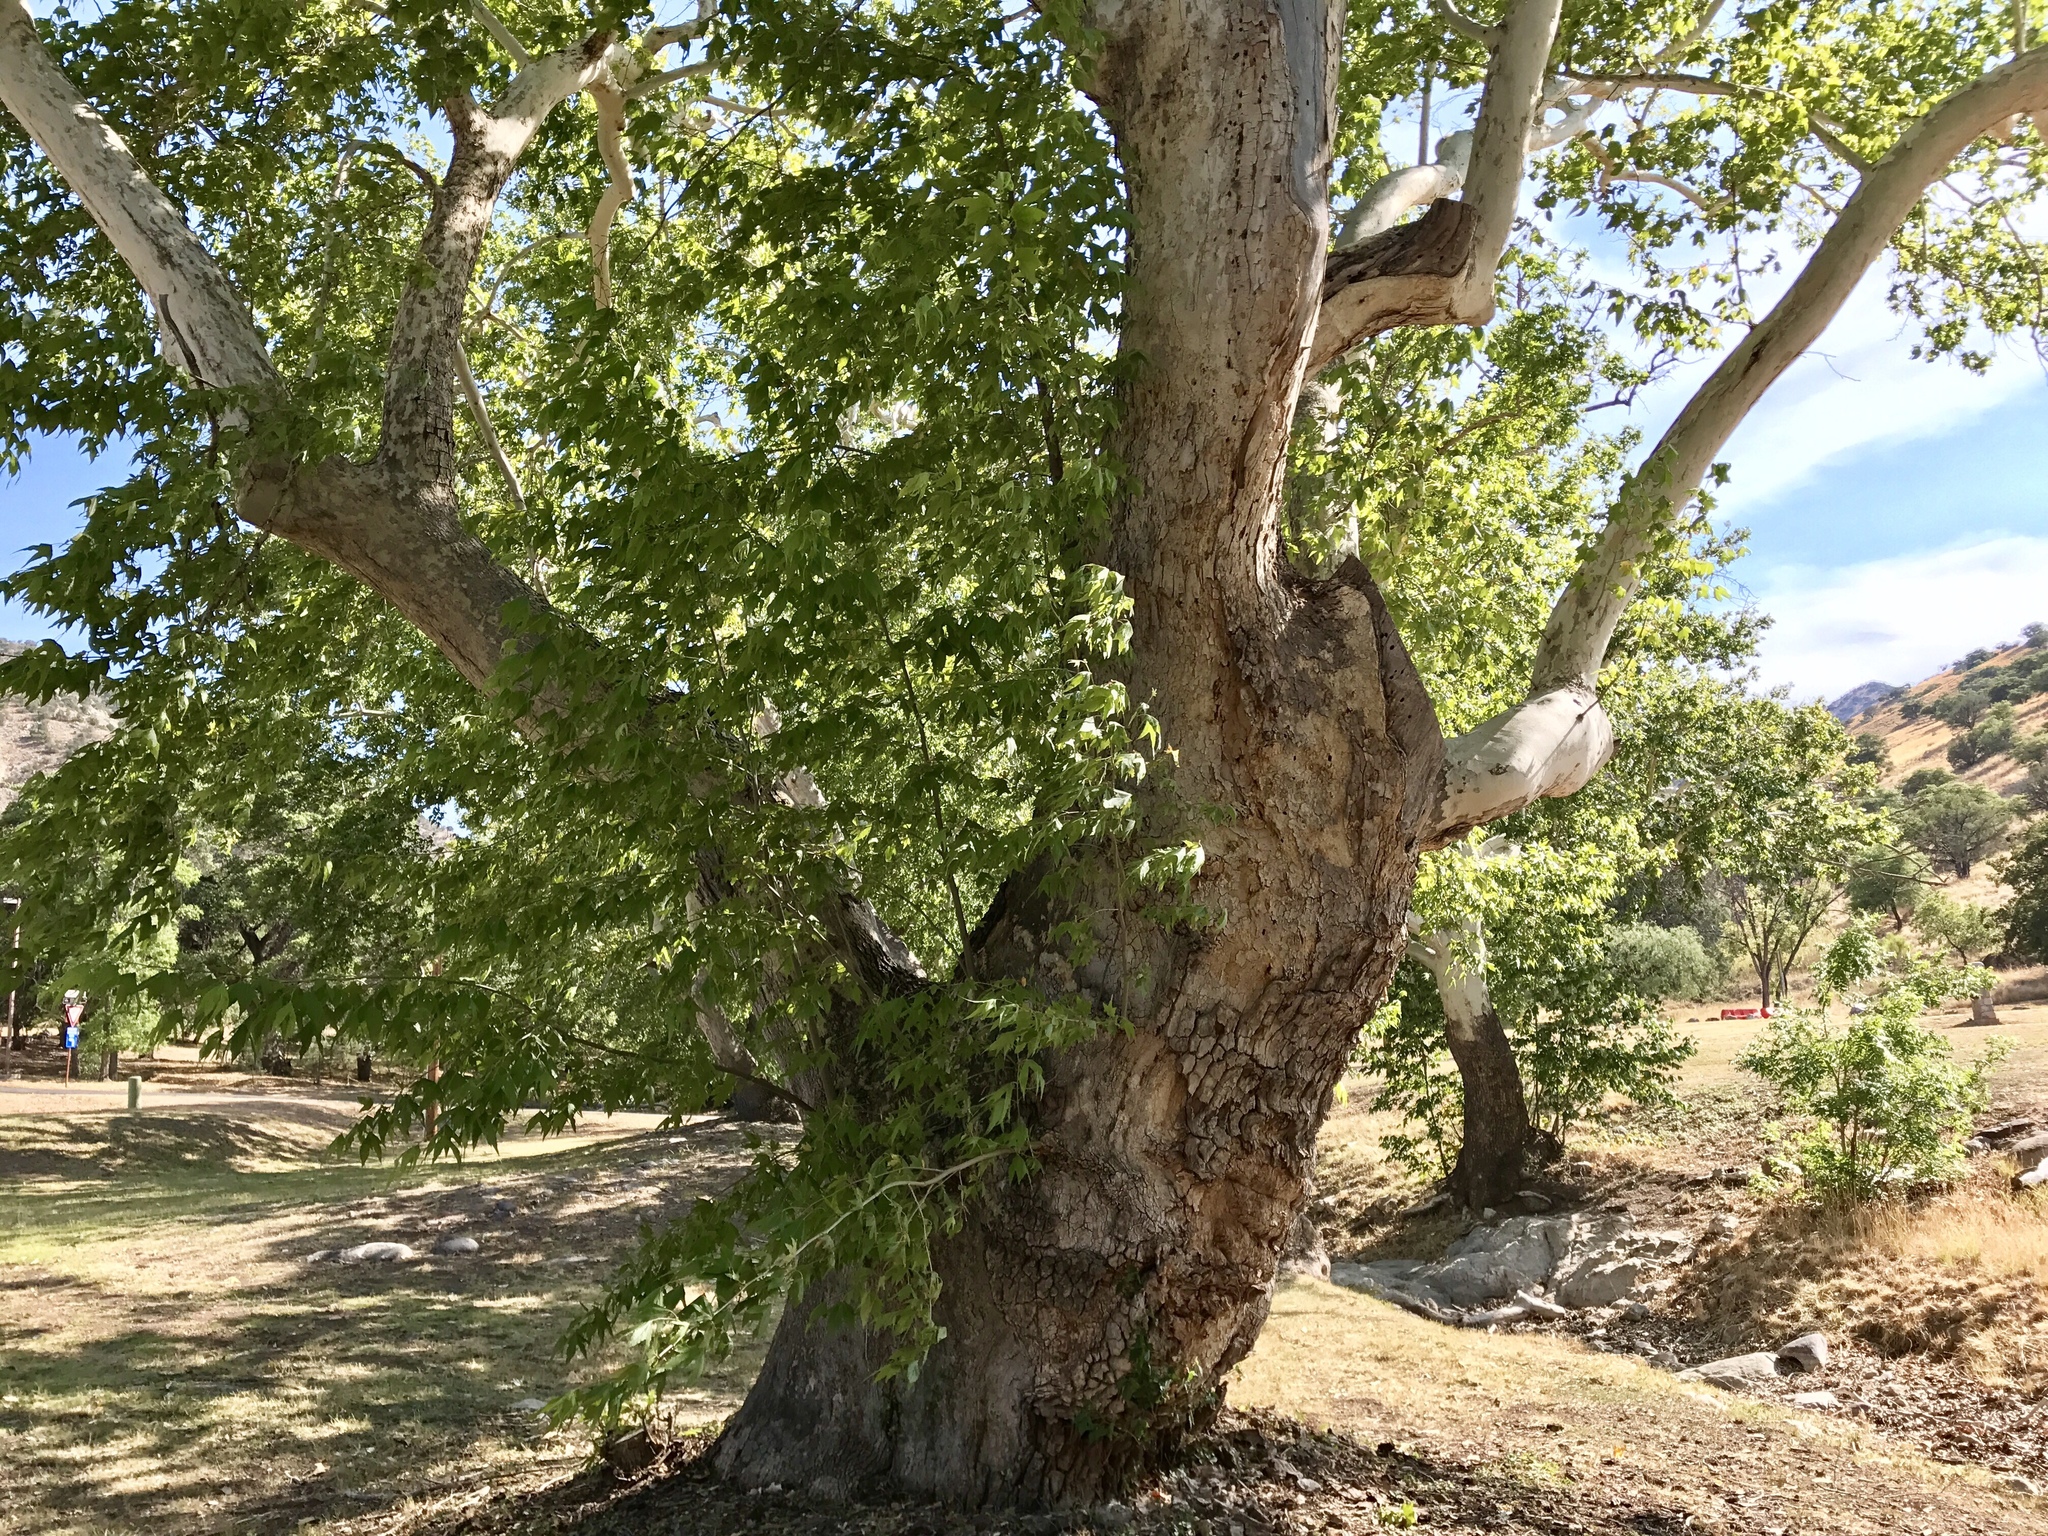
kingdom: Plantae
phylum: Tracheophyta
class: Magnoliopsida
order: Proteales
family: Platanaceae
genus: Platanus
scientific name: Platanus wrightii
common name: Arizona sycamore
